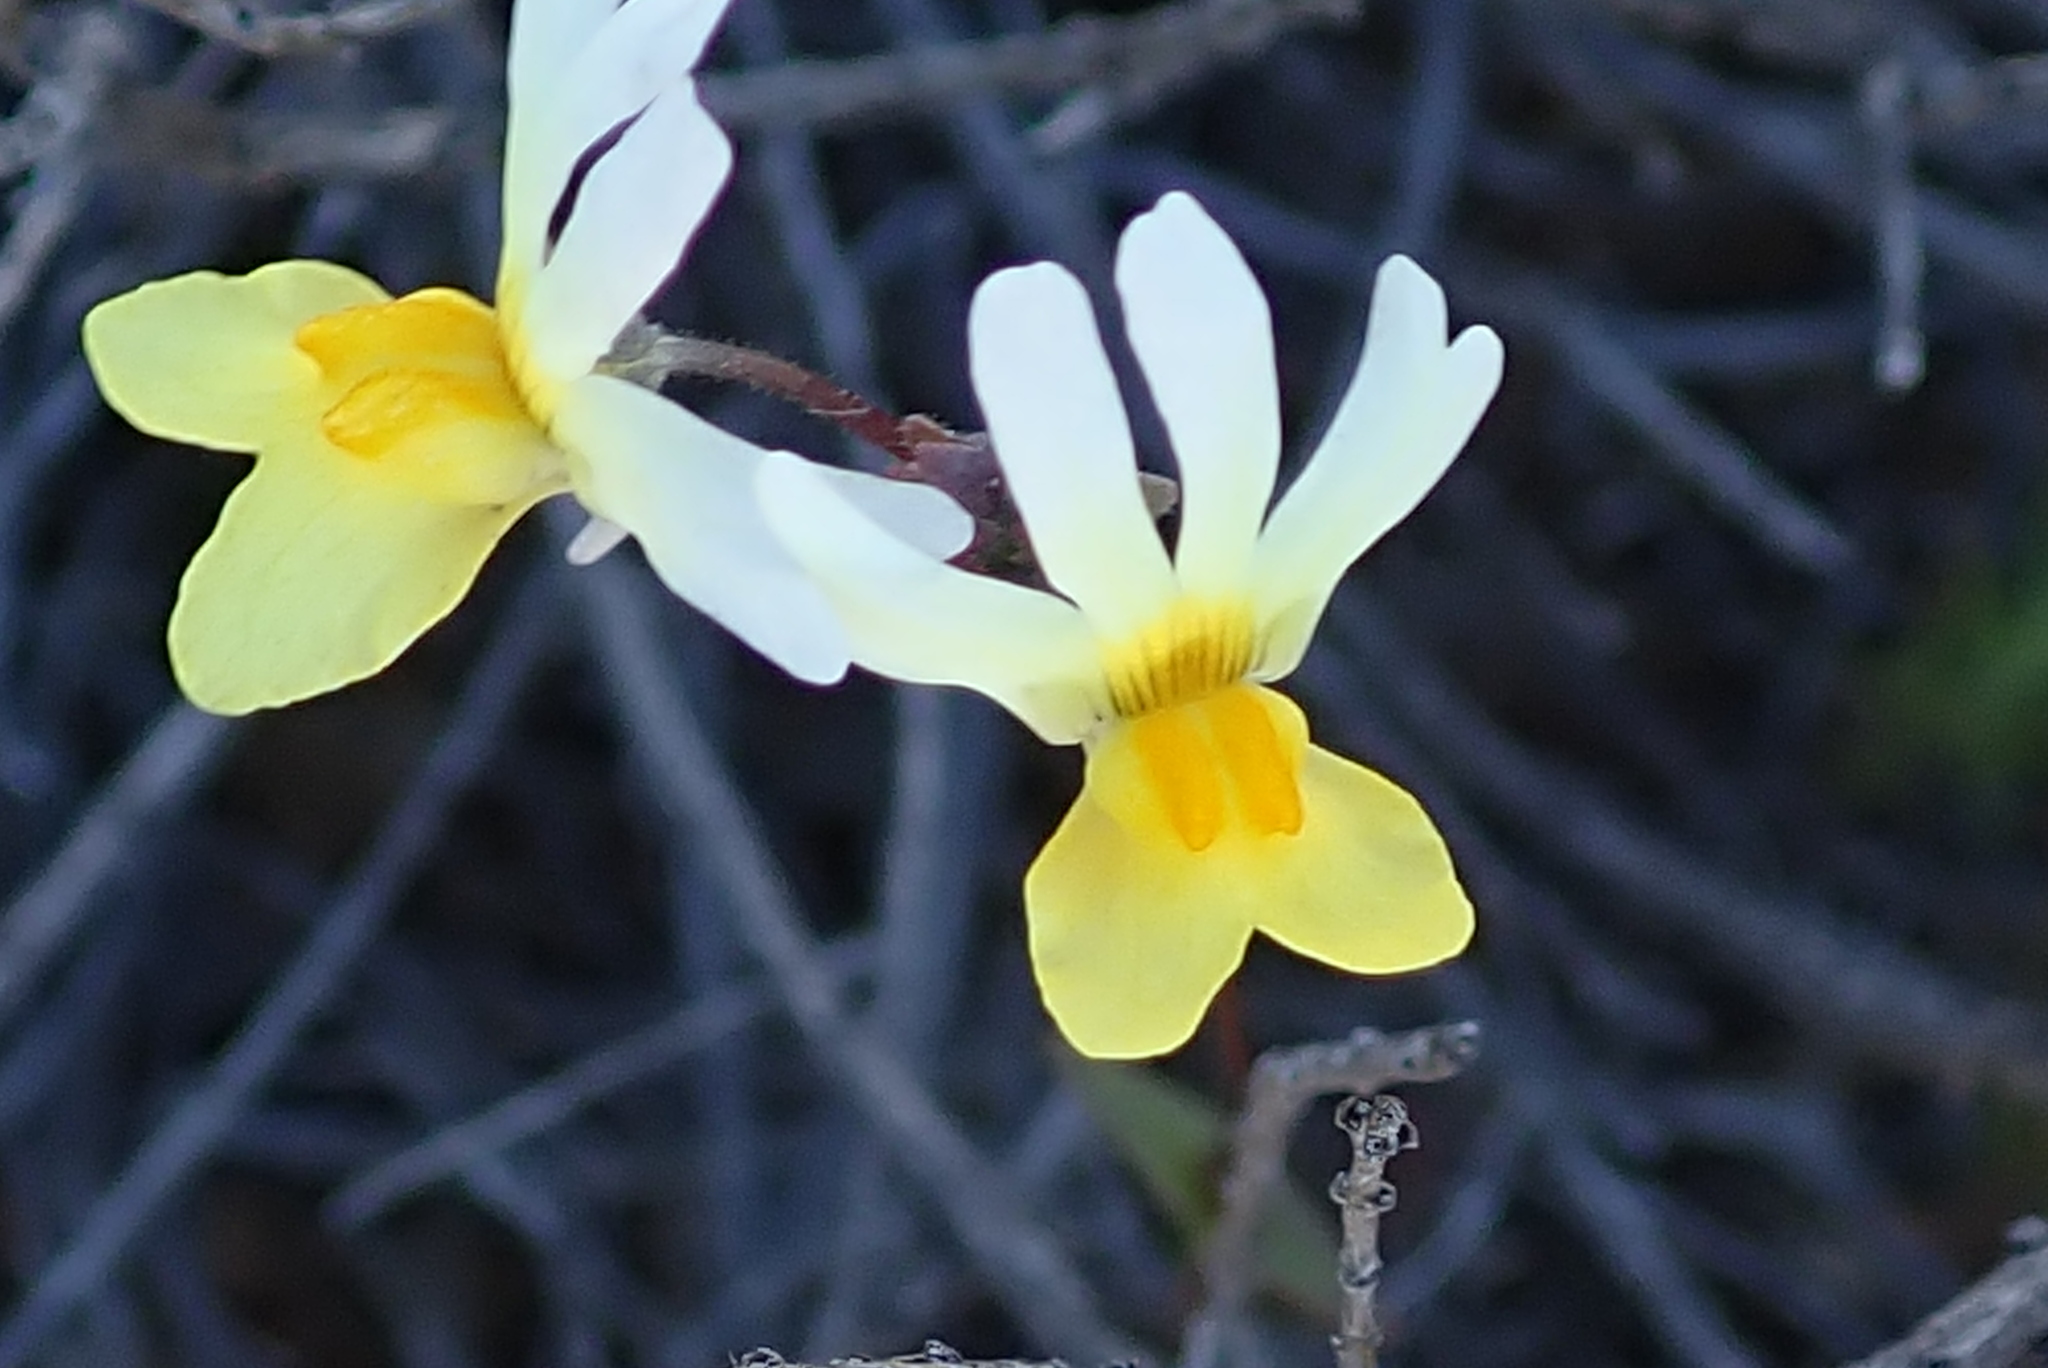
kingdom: Plantae
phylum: Tracheophyta
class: Magnoliopsida
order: Lamiales
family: Scrophulariaceae
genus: Nemesia
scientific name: Nemesia calcarata
